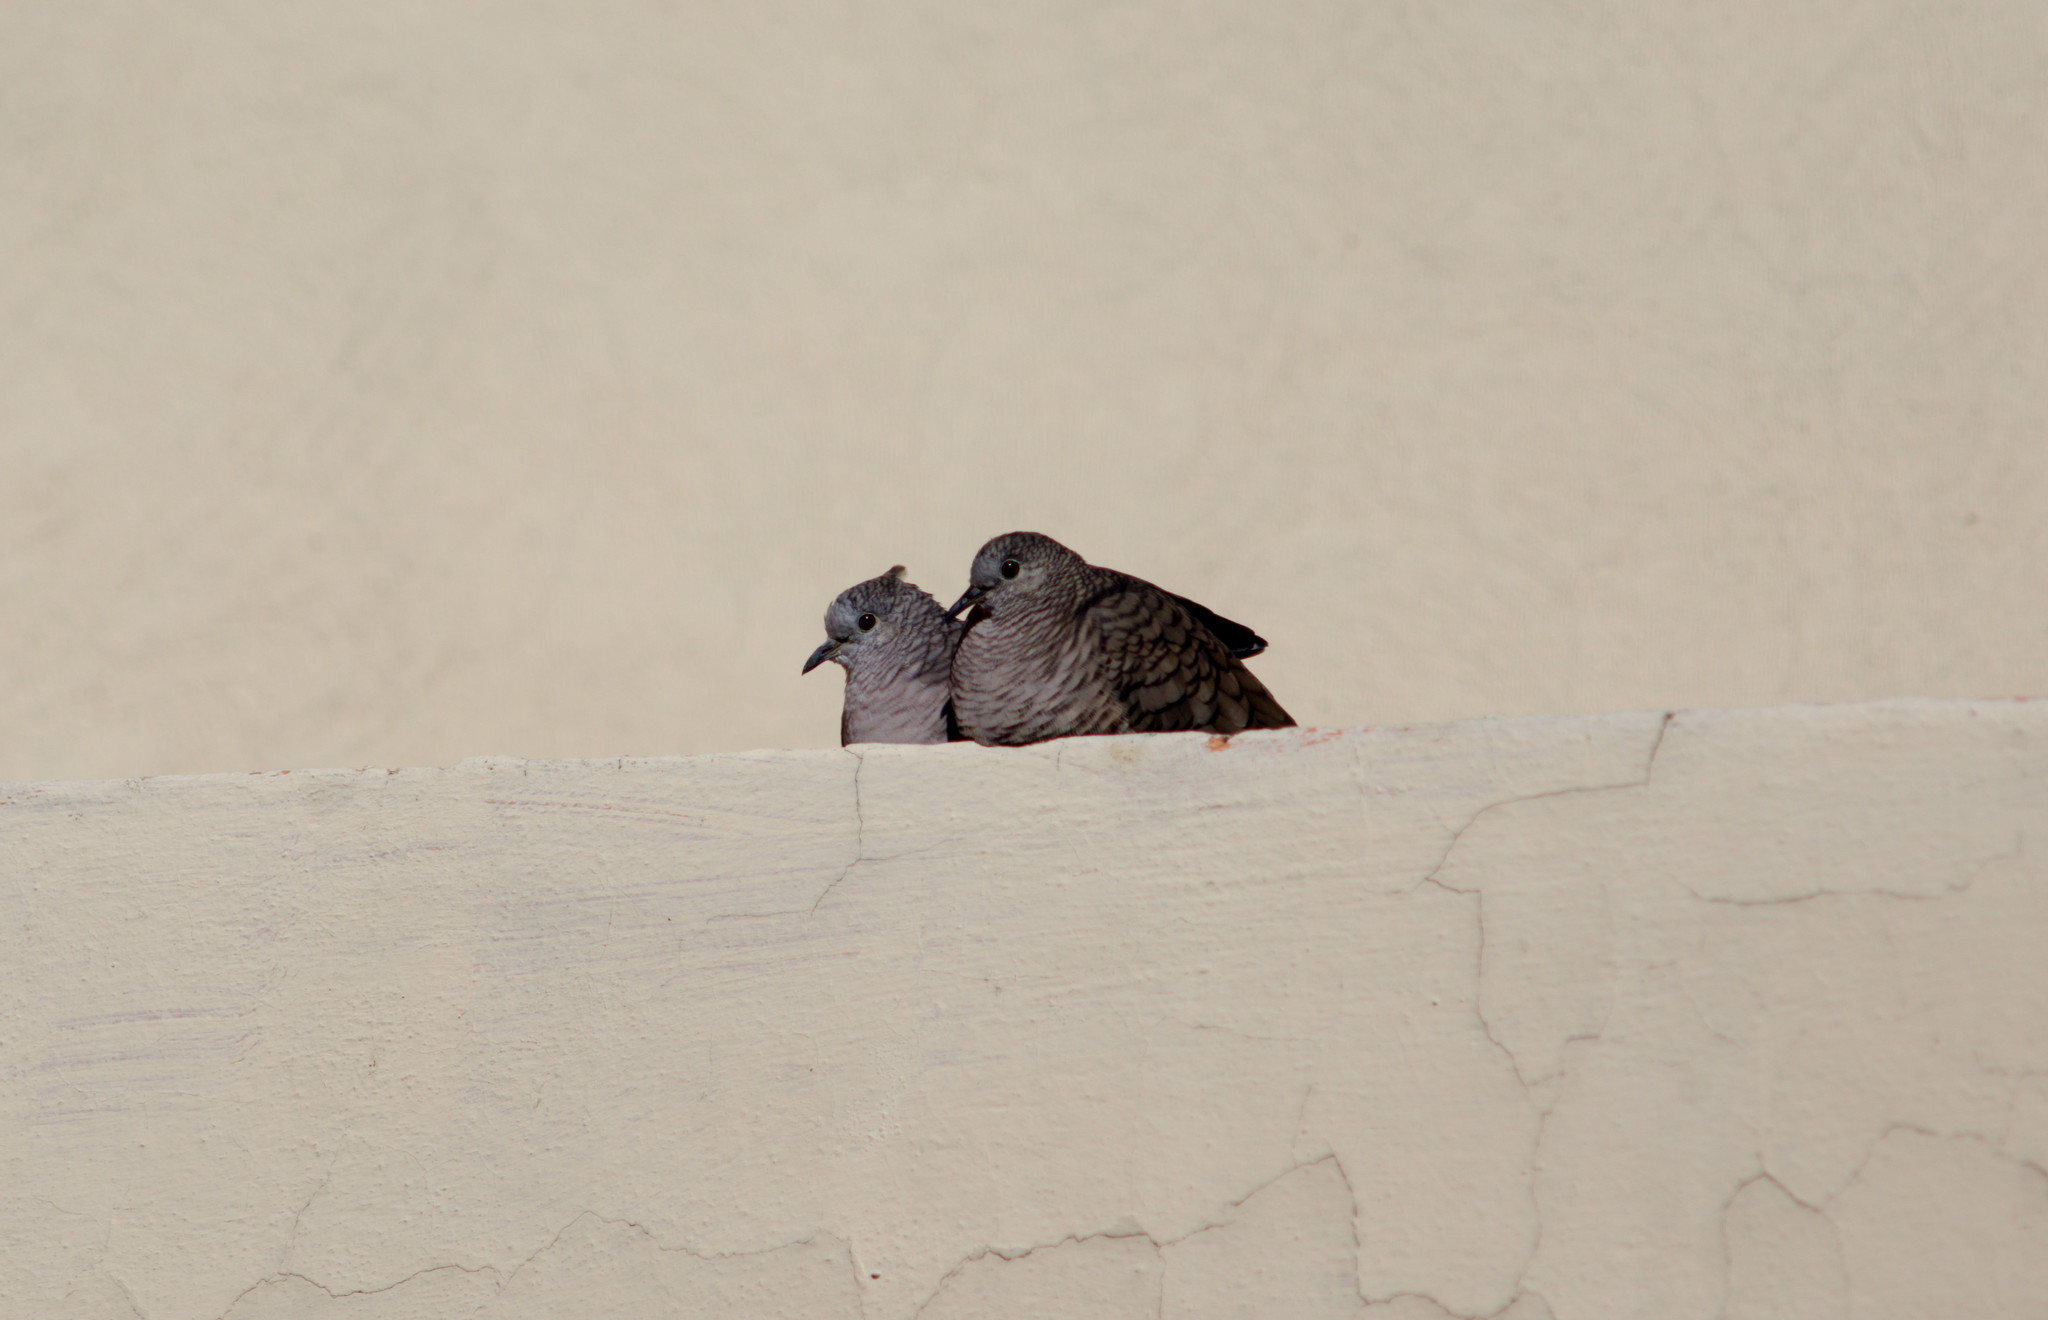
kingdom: Animalia
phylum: Chordata
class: Aves
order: Columbiformes
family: Columbidae
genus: Columbina
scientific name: Columbina inca
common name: Inca dove
